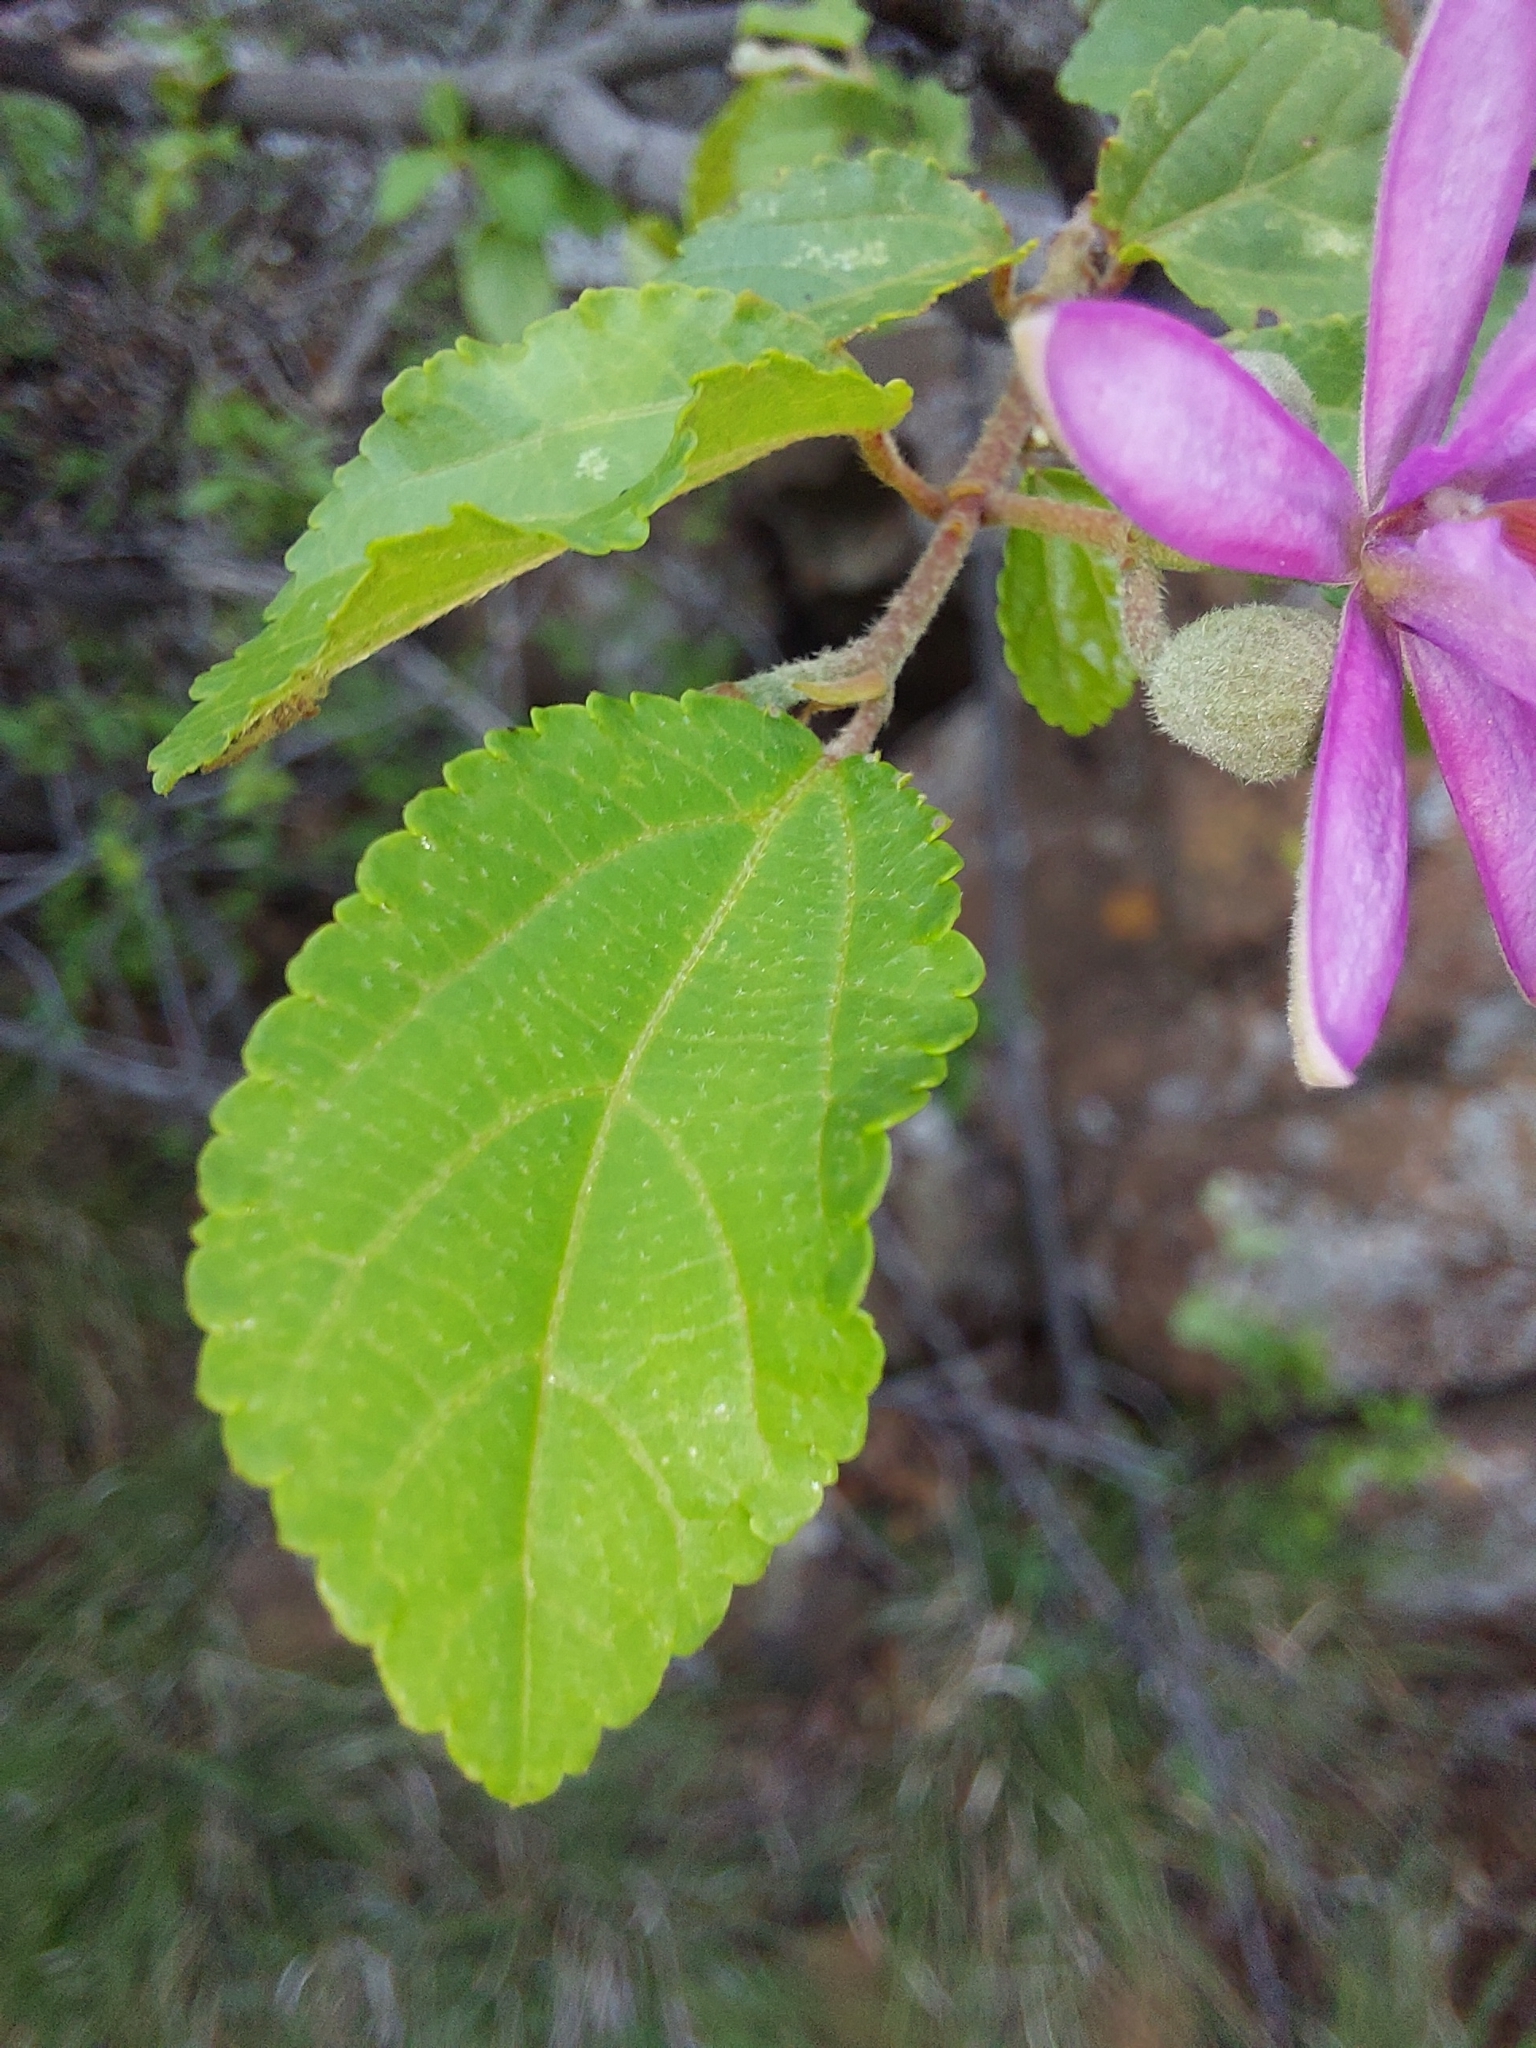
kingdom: Plantae
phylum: Tracheophyta
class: Magnoliopsida
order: Malvales
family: Malvaceae
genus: Grewia
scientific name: Grewia occidentalis
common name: Crossberry
